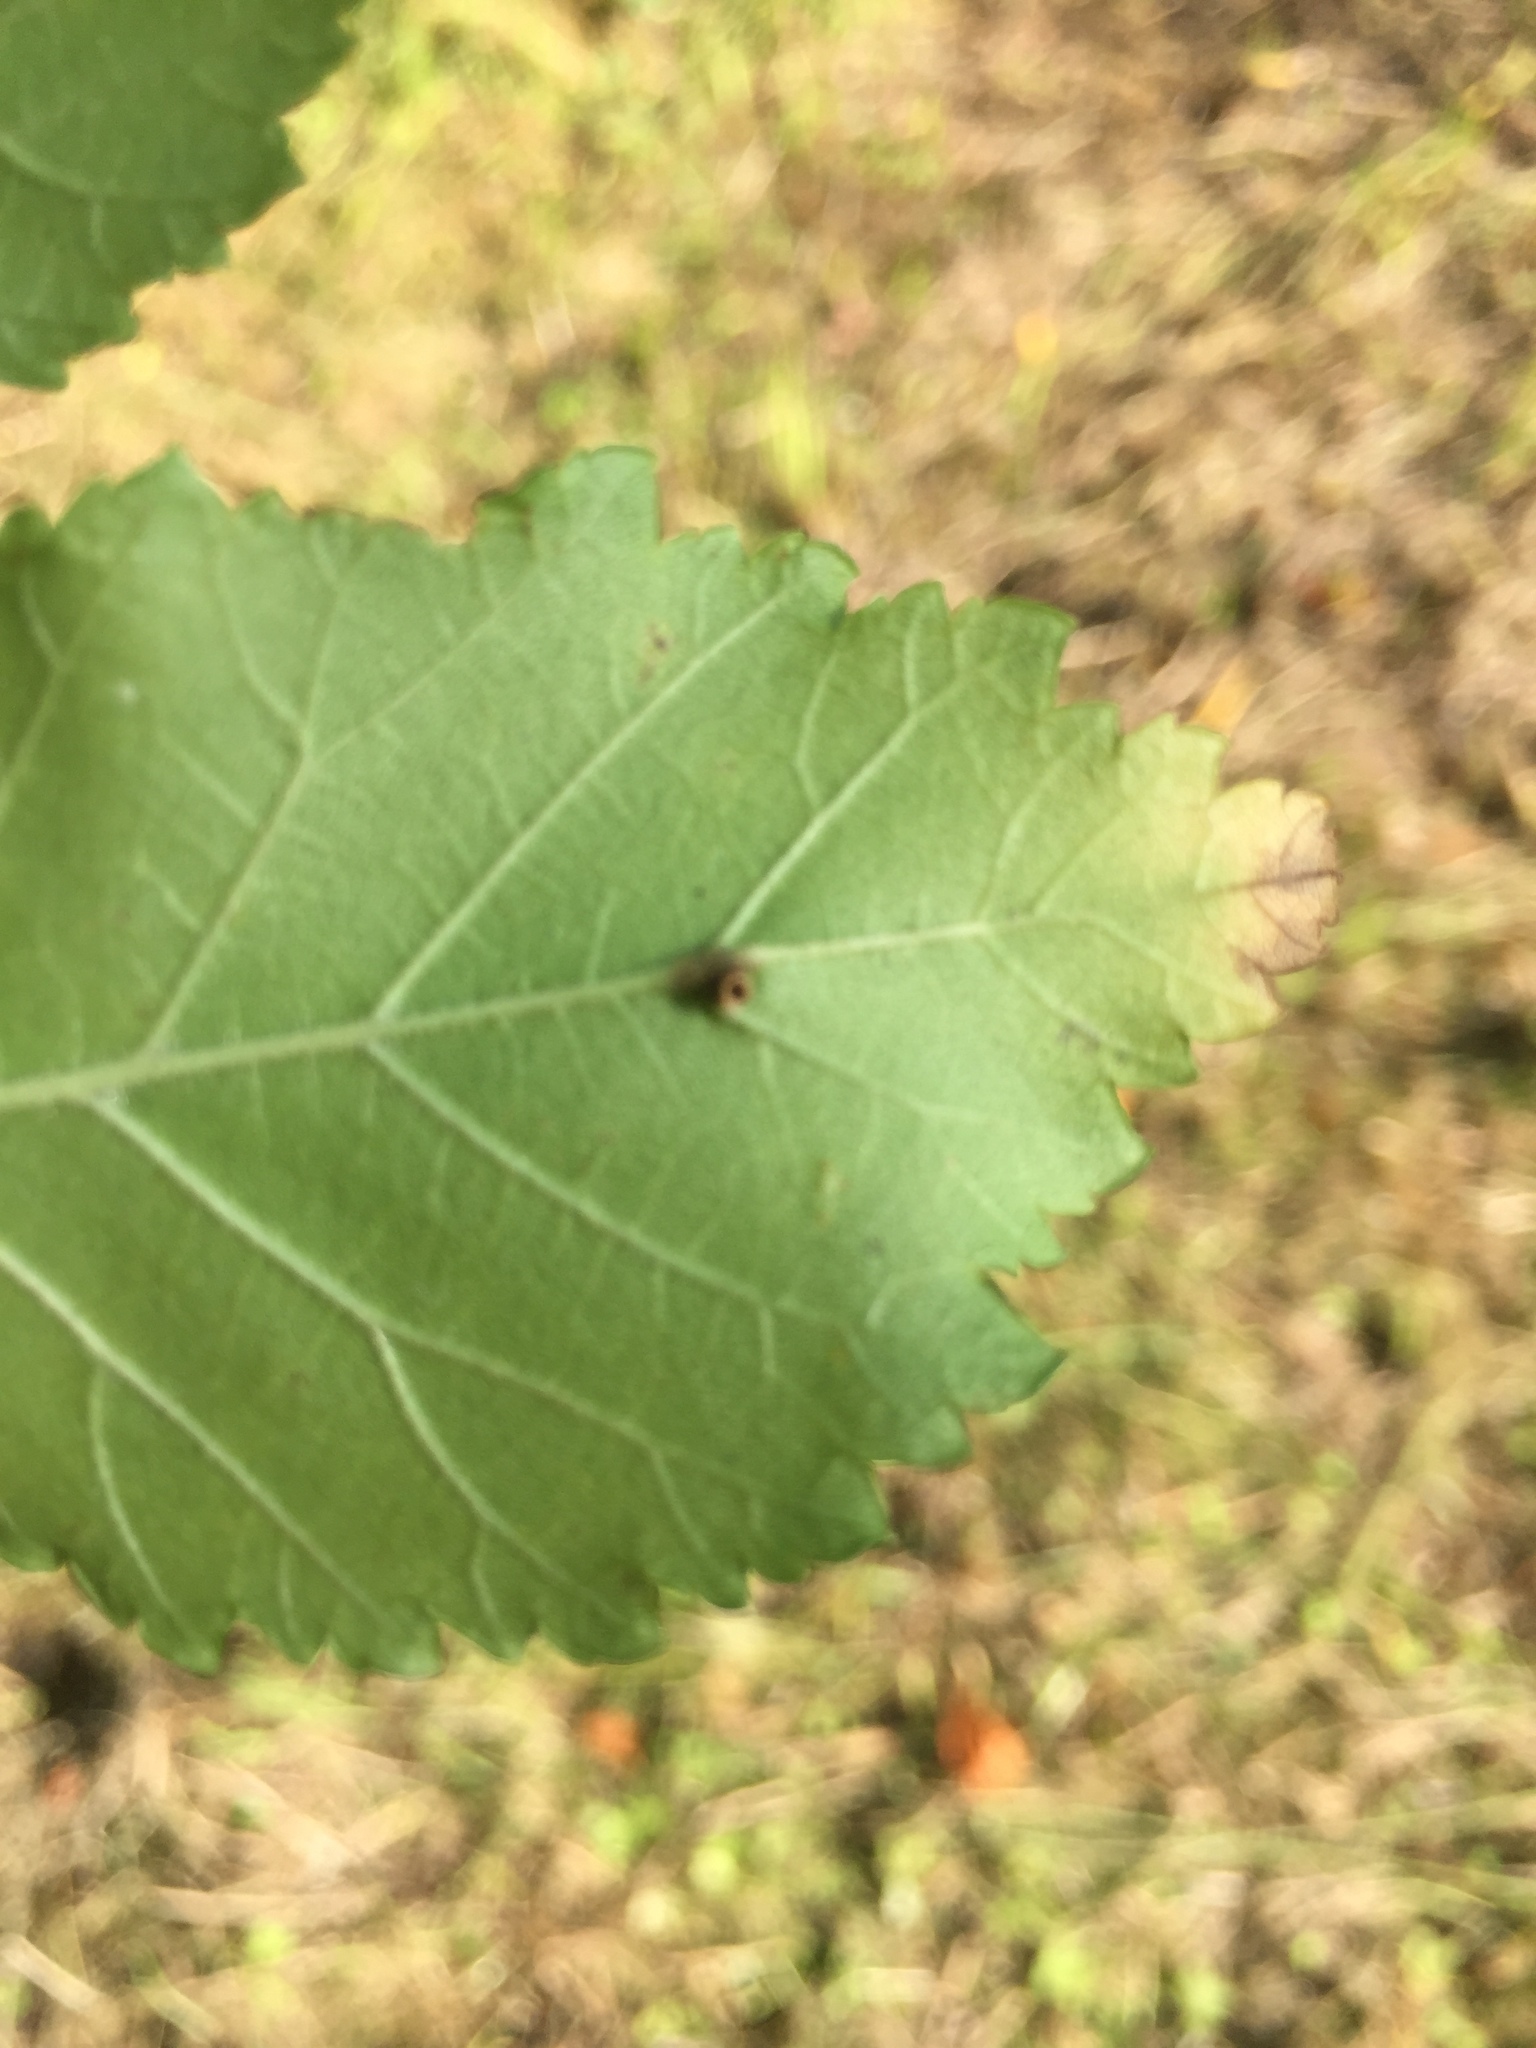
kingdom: Animalia
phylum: Arthropoda
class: Insecta
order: Diptera
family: Cecidomyiidae
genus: Janetiella
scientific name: Janetiella lemeei
